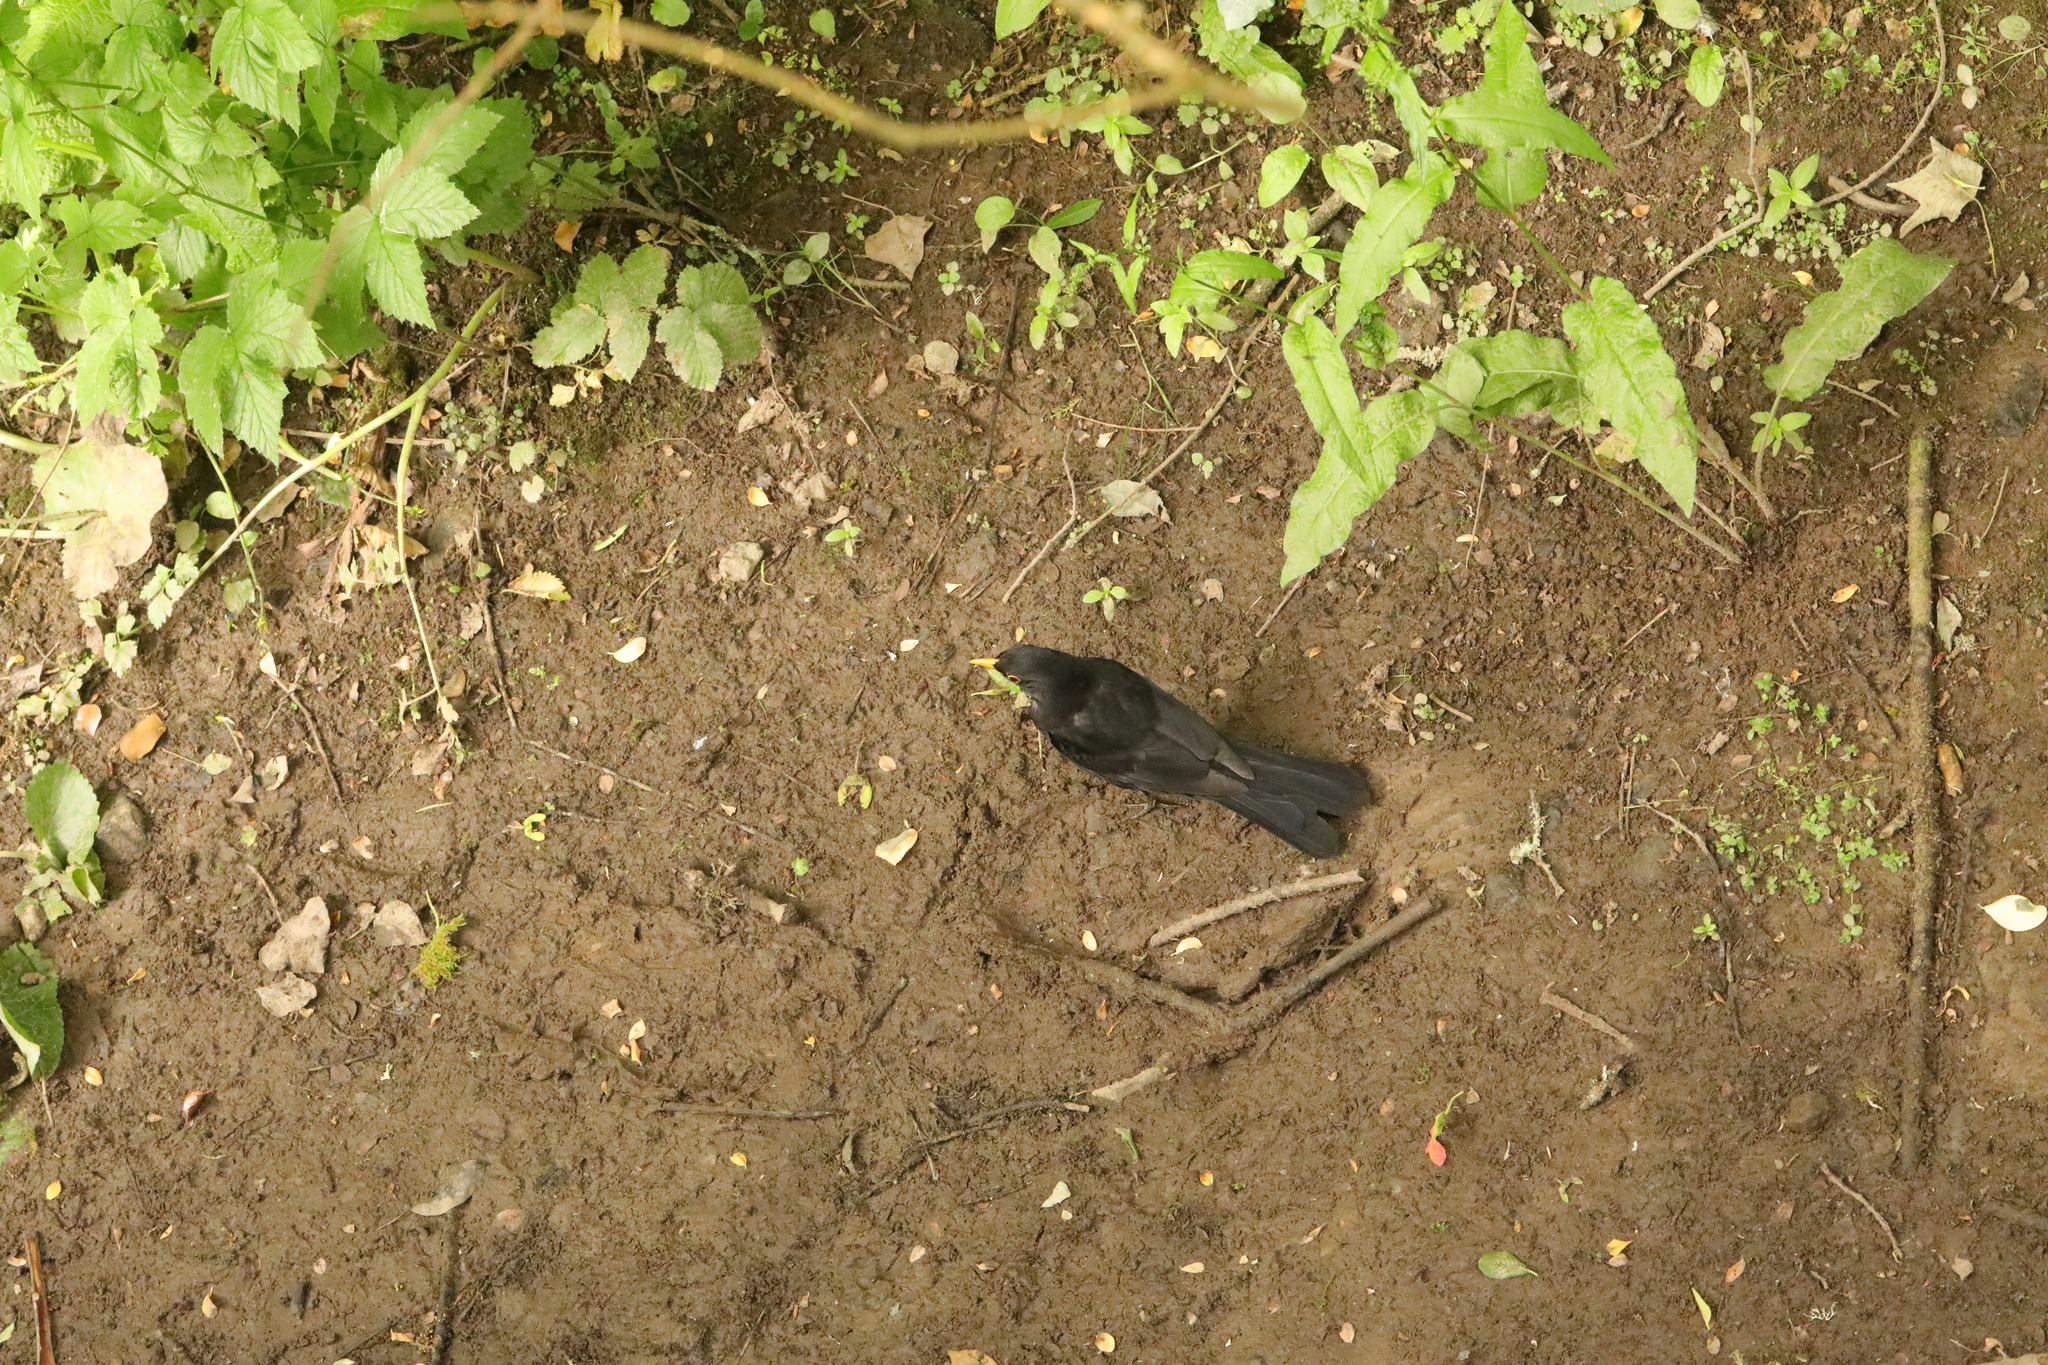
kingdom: Animalia
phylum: Chordata
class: Aves
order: Passeriformes
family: Turdidae
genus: Turdus
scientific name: Turdus merula
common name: Common blackbird
